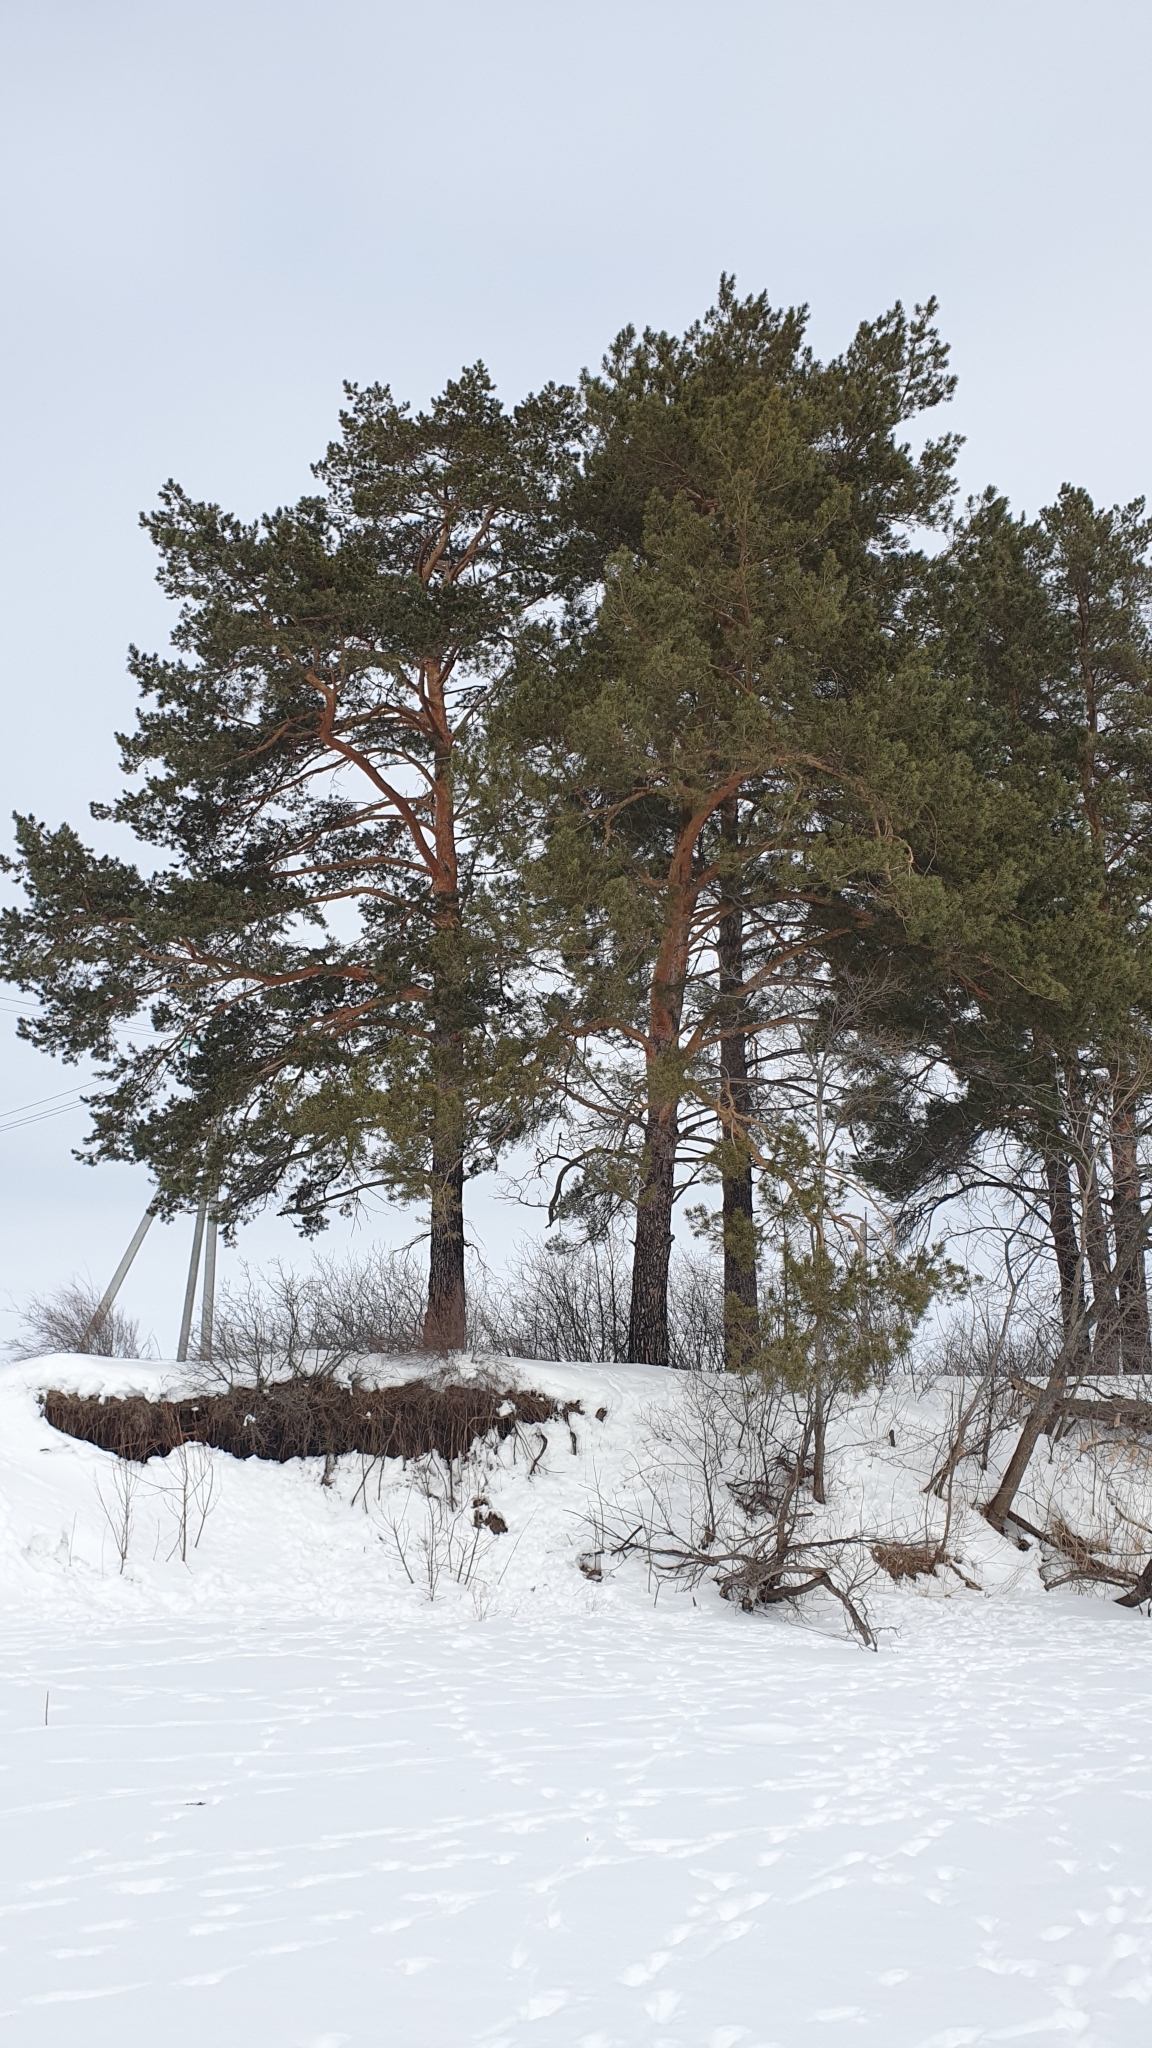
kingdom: Plantae
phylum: Tracheophyta
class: Pinopsida
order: Pinales
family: Pinaceae
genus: Pinus
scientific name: Pinus sylvestris
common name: Scots pine
